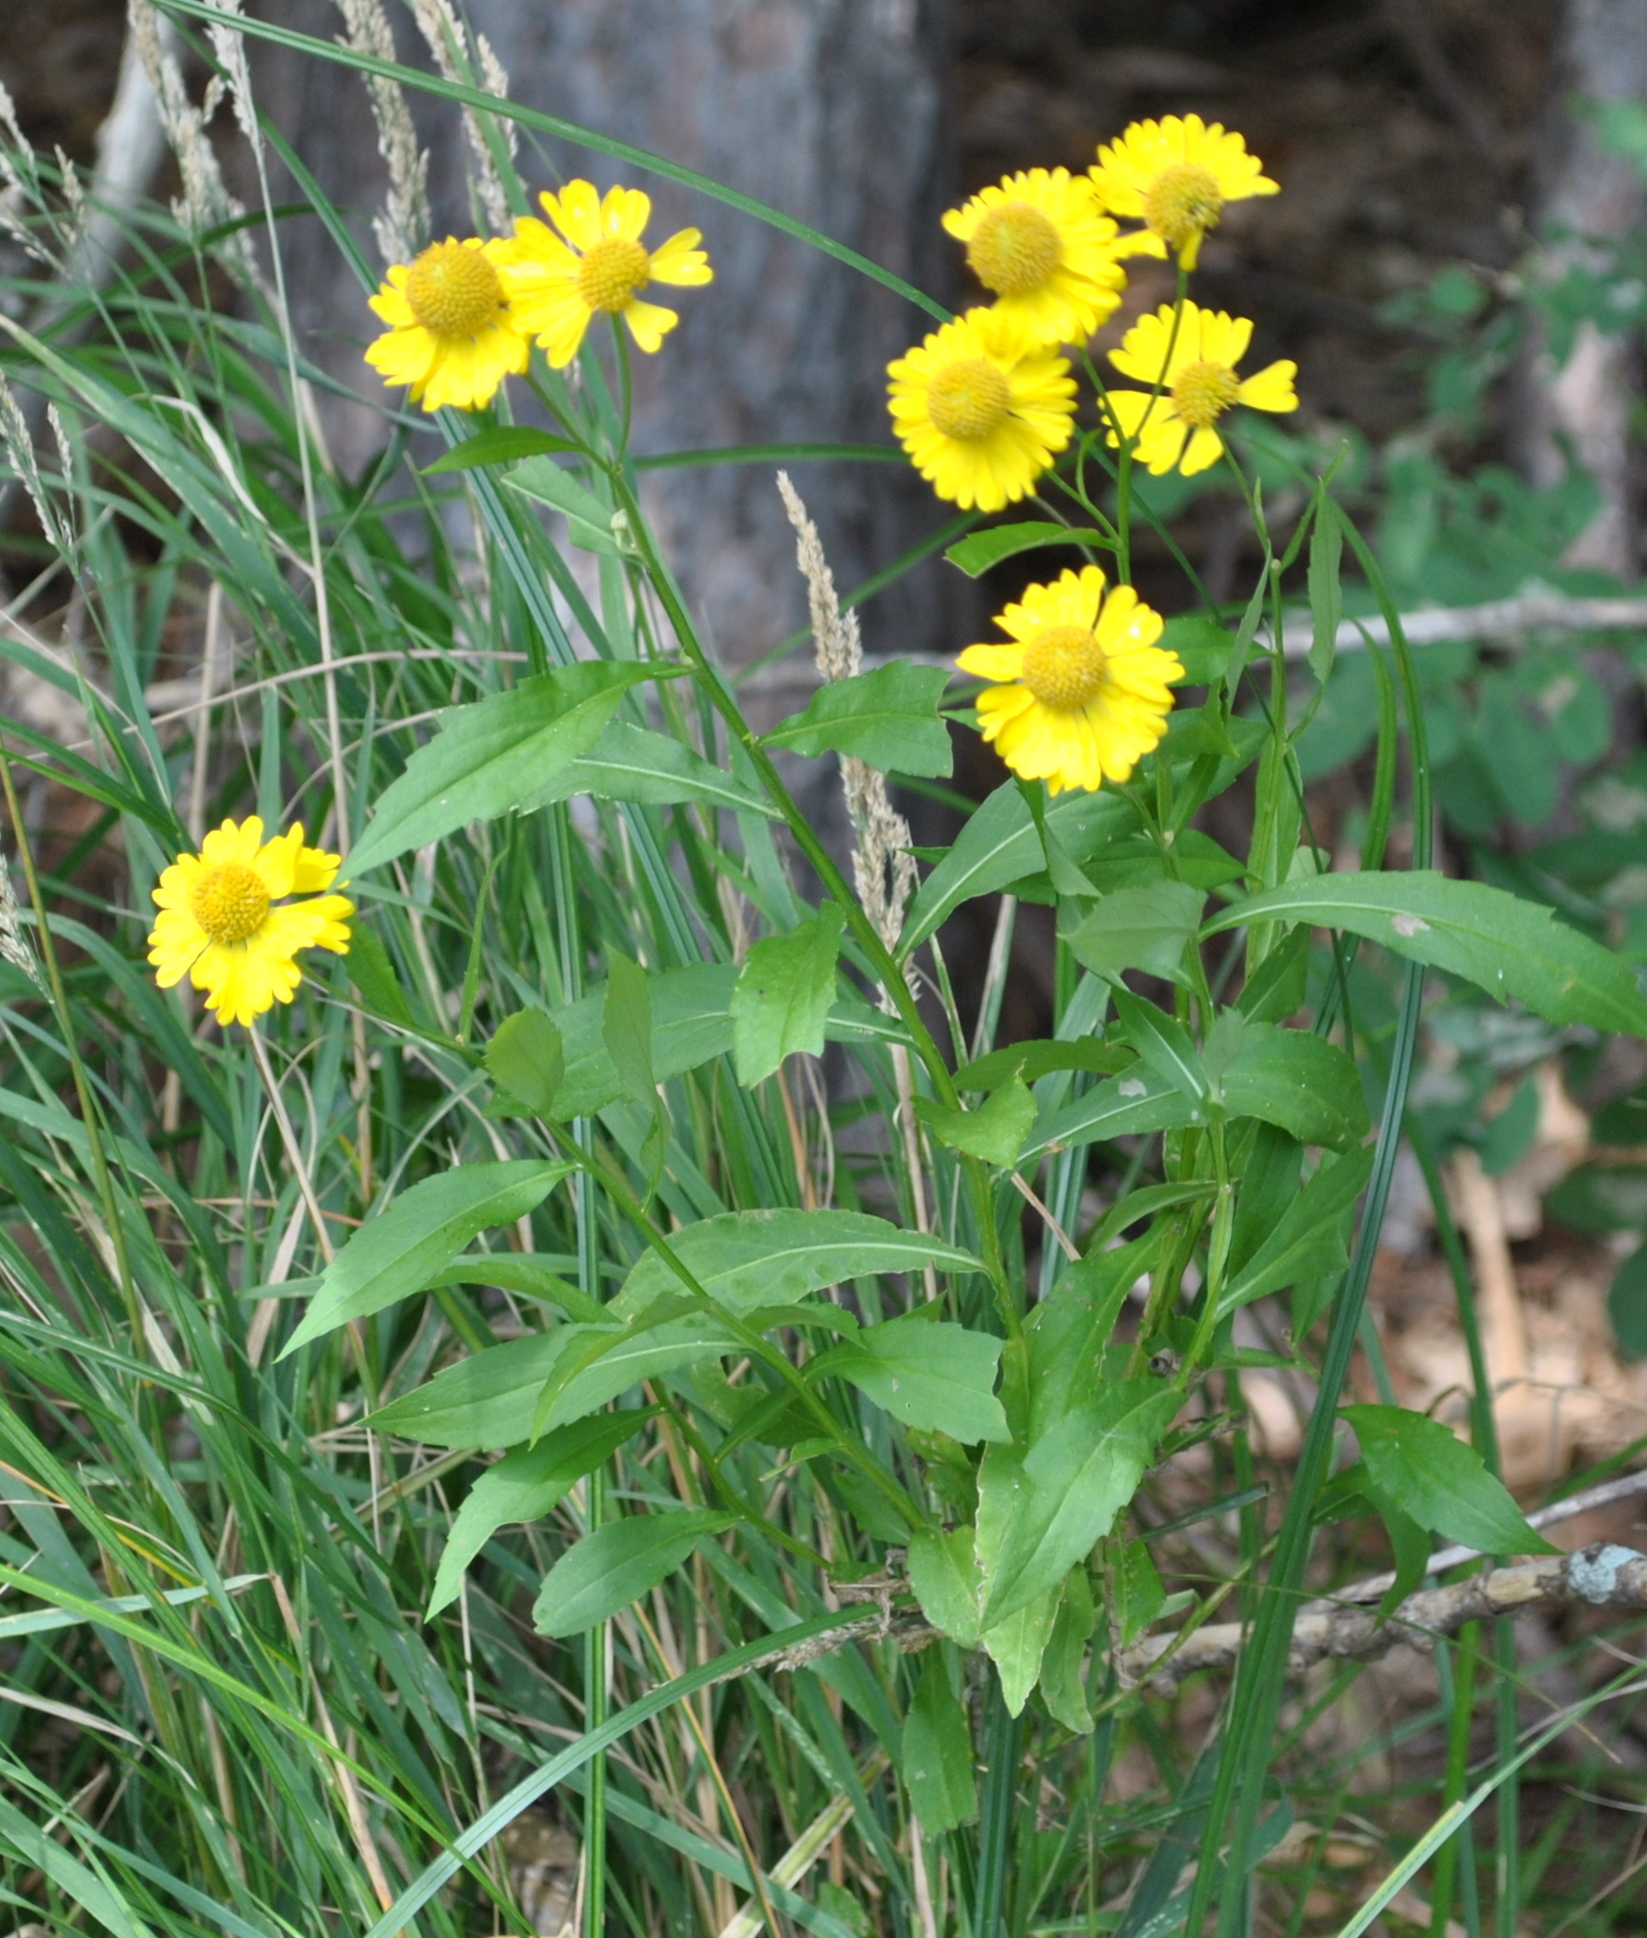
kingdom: Plantae
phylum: Tracheophyta
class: Magnoliopsida
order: Asterales
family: Asteraceae
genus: Helenium
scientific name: Helenium autumnale
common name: Sneezeweed
